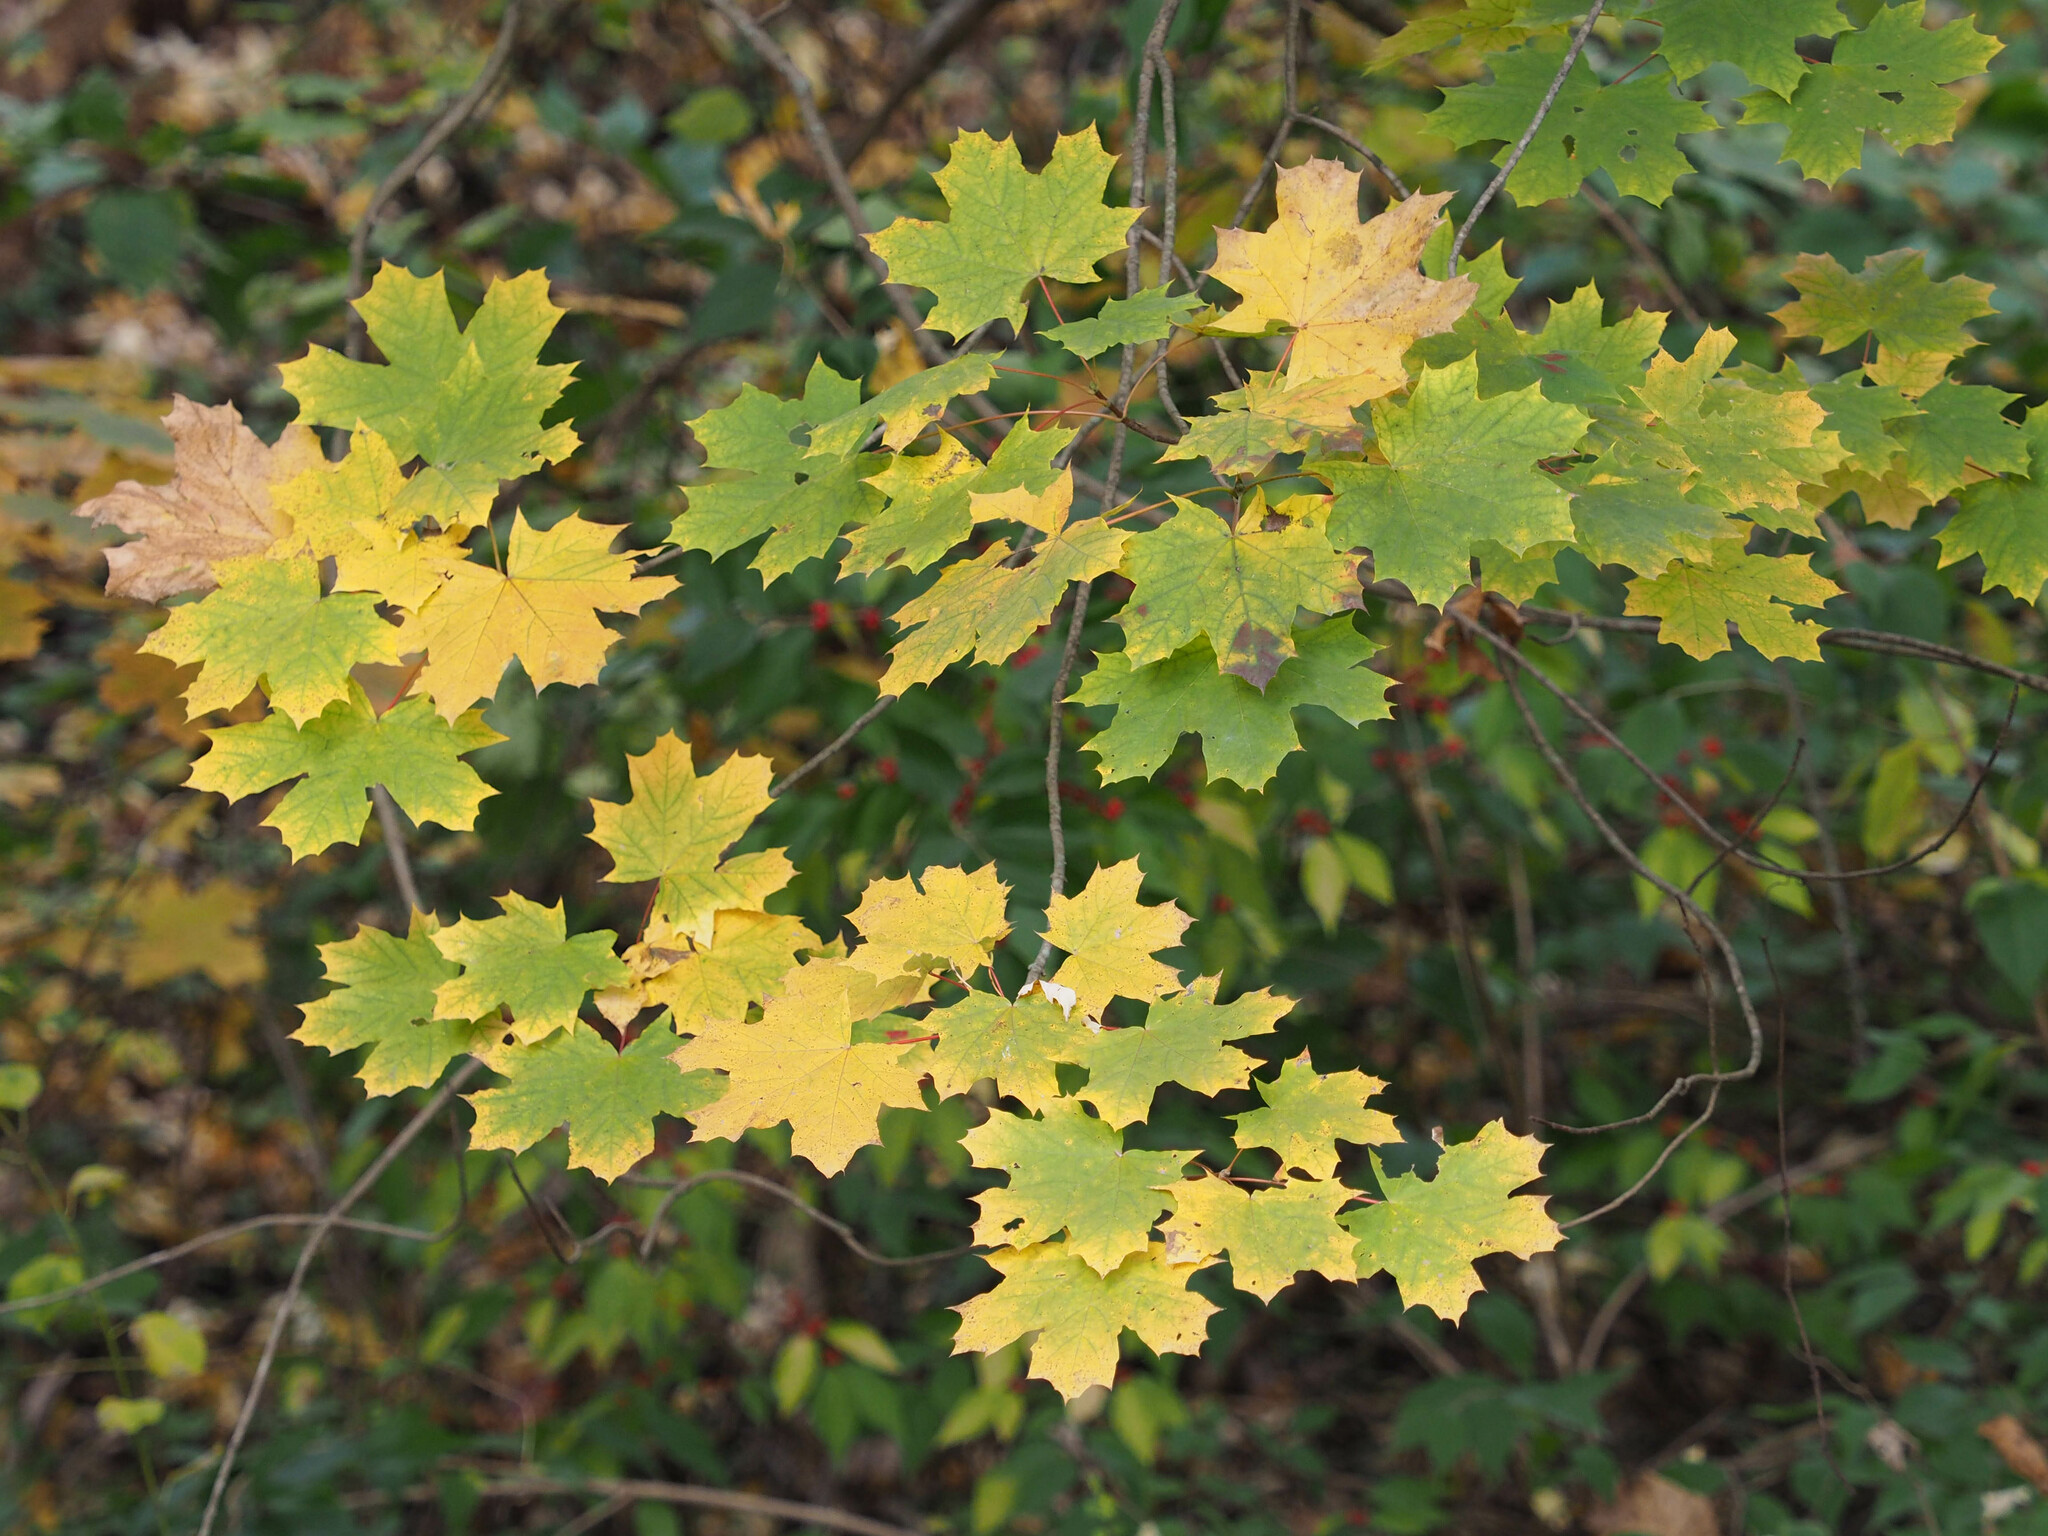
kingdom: Plantae
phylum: Tracheophyta
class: Magnoliopsida
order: Sapindales
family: Sapindaceae
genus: Acer
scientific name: Acer platanoides
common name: Norway maple
